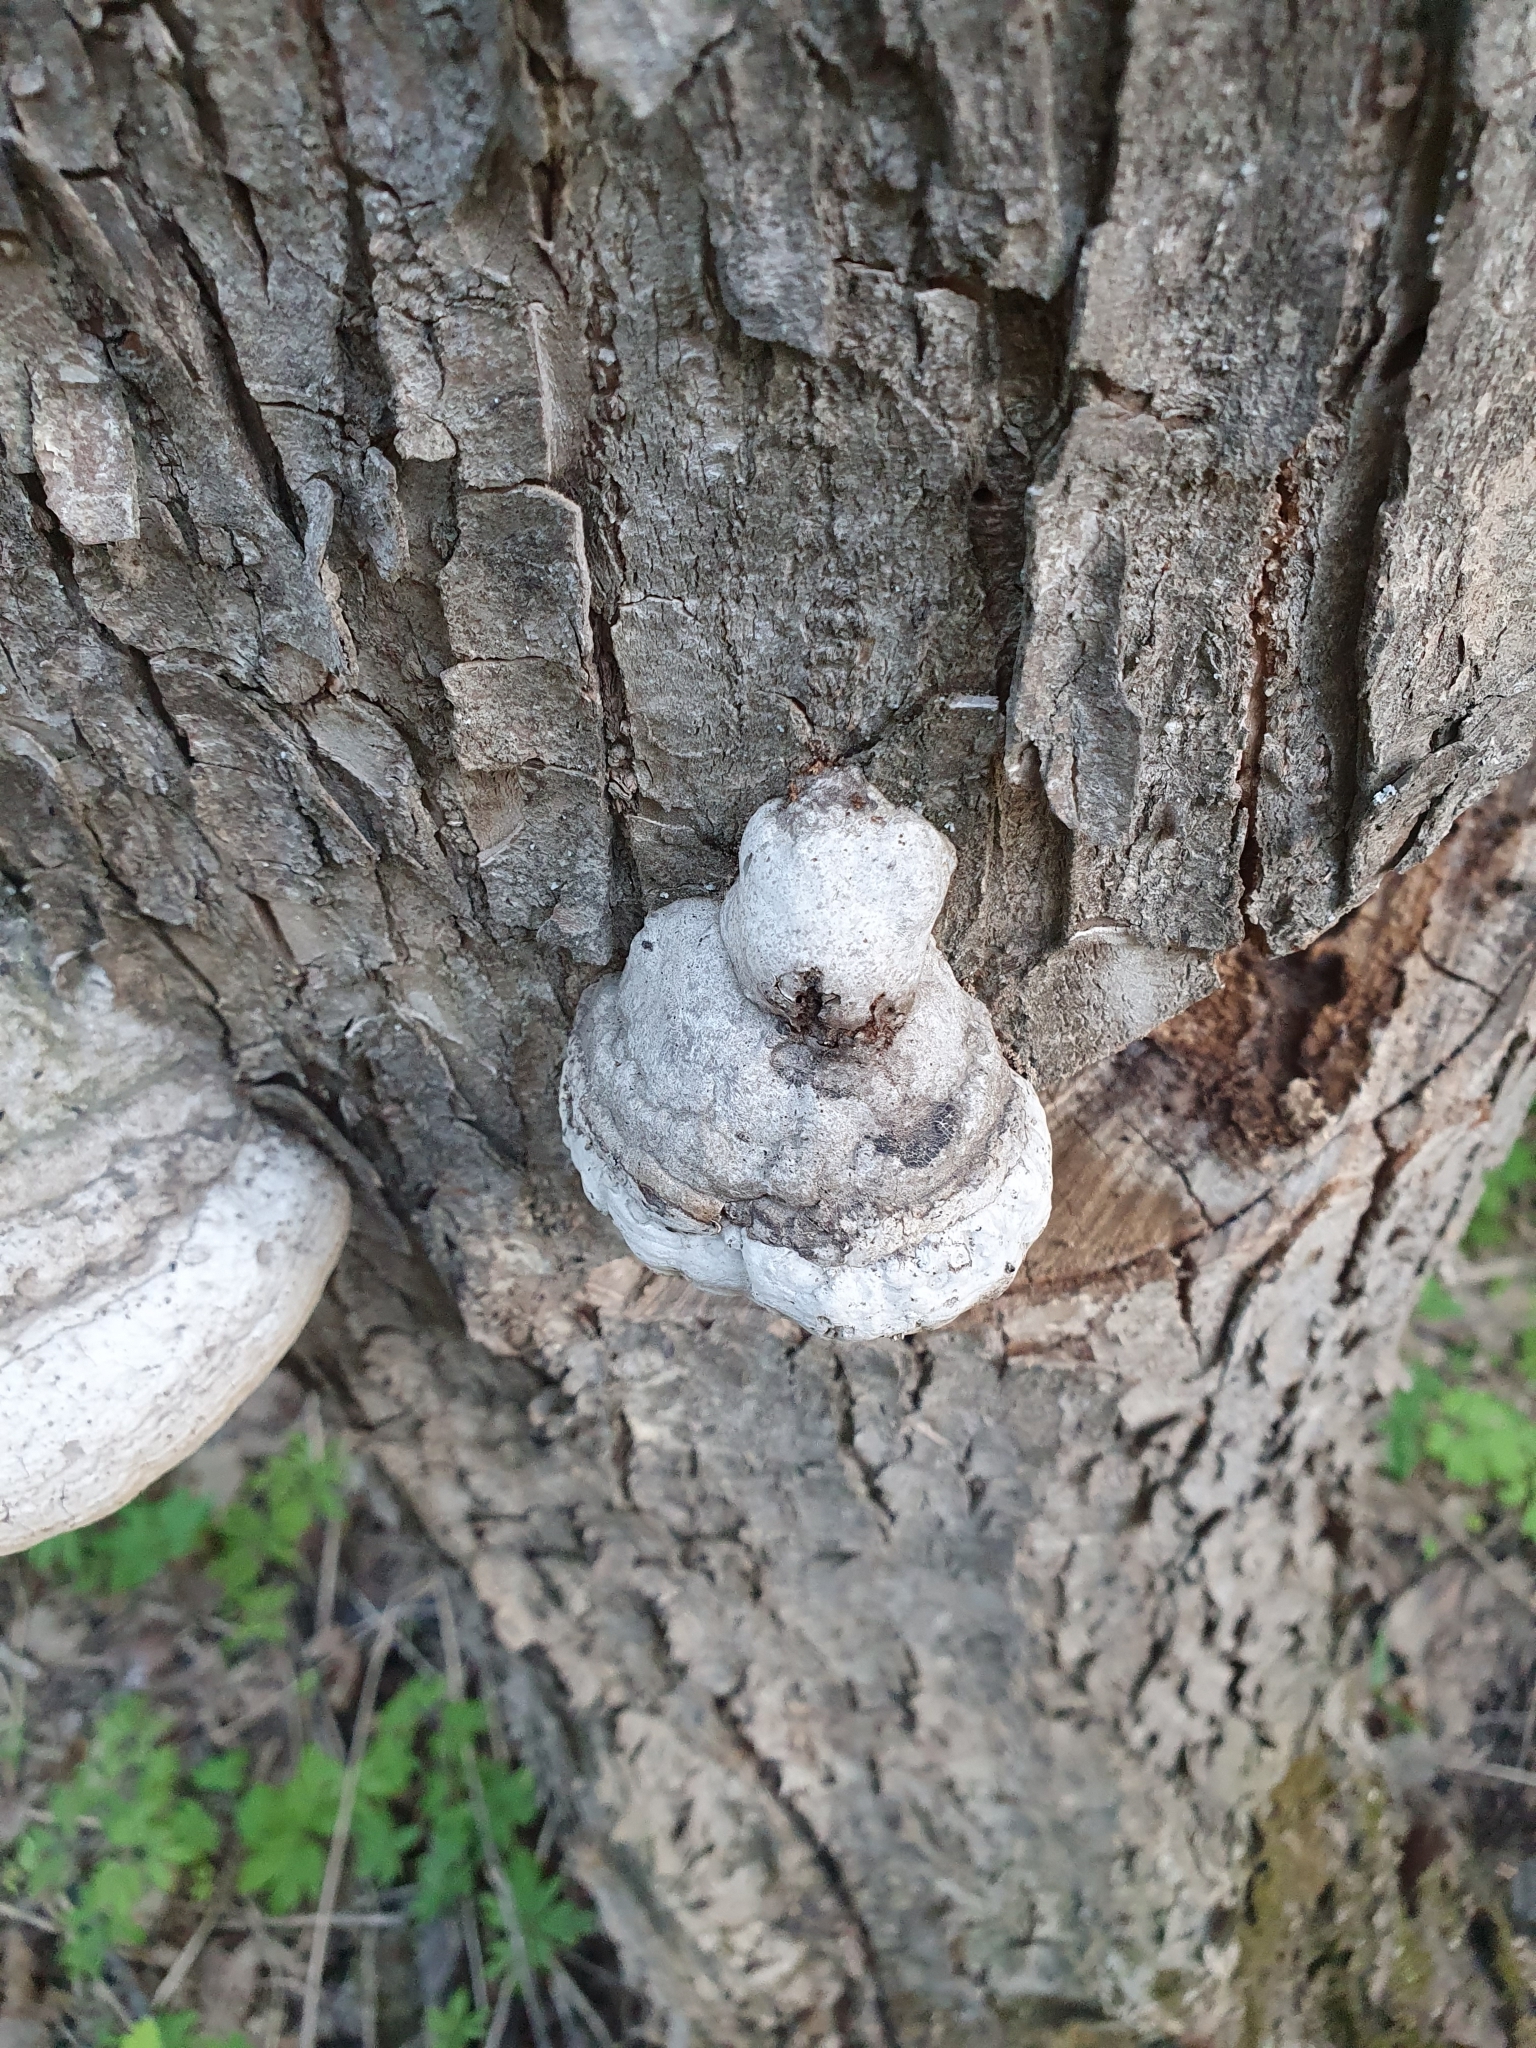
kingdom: Fungi
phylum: Basidiomycota
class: Agaricomycetes
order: Polyporales
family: Polyporaceae
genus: Fomes
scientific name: Fomes fomentarius
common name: Hoof fungus
